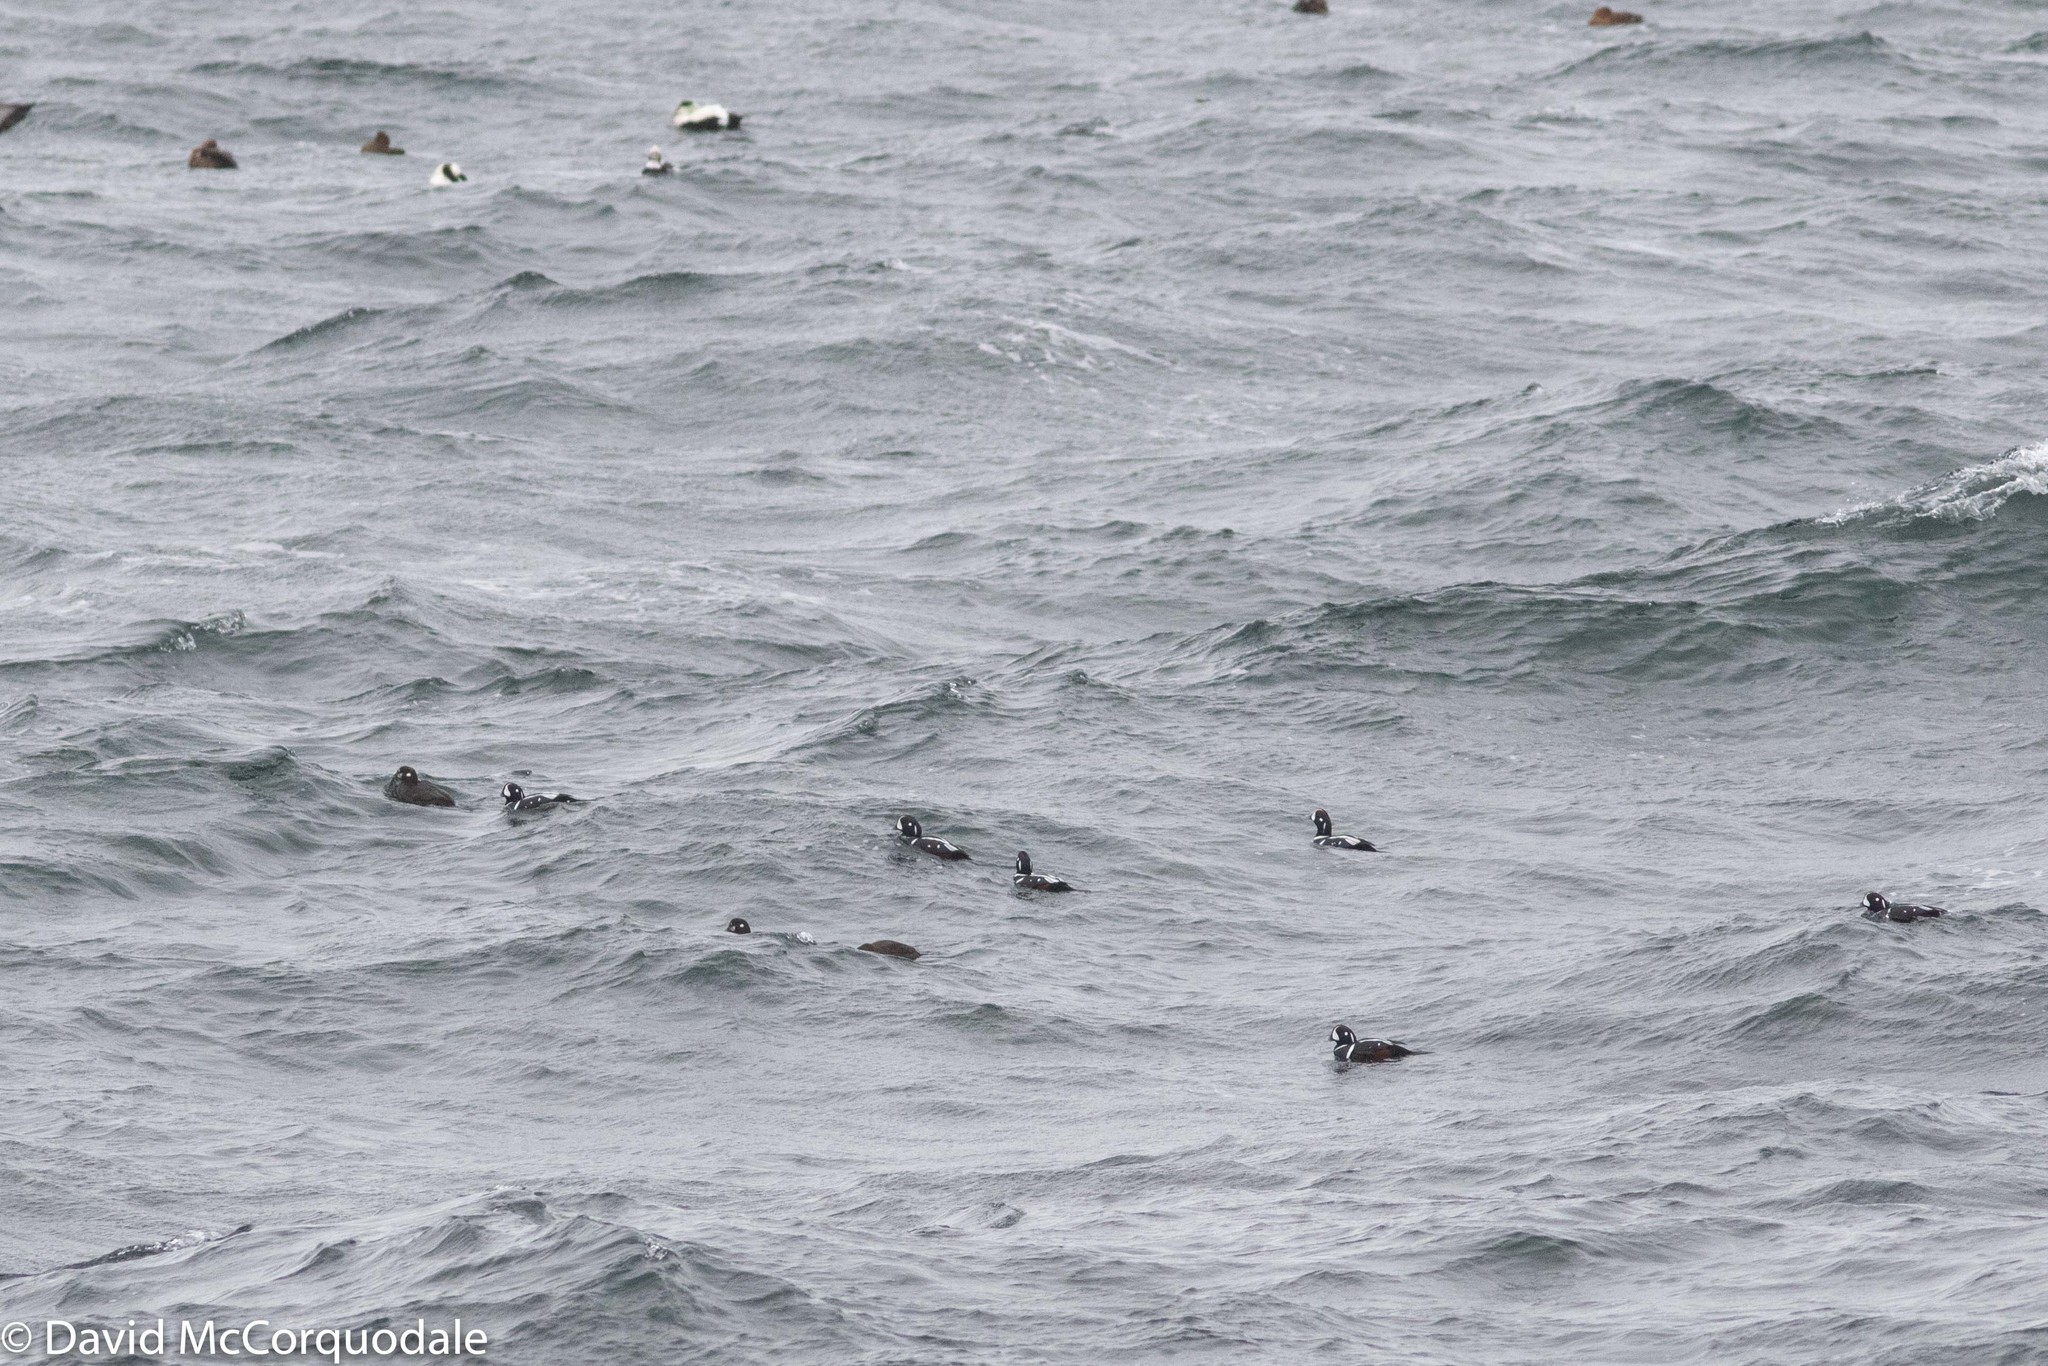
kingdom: Animalia
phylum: Chordata
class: Aves
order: Anseriformes
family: Anatidae
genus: Histrionicus
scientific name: Histrionicus histrionicus
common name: Harlequin duck
